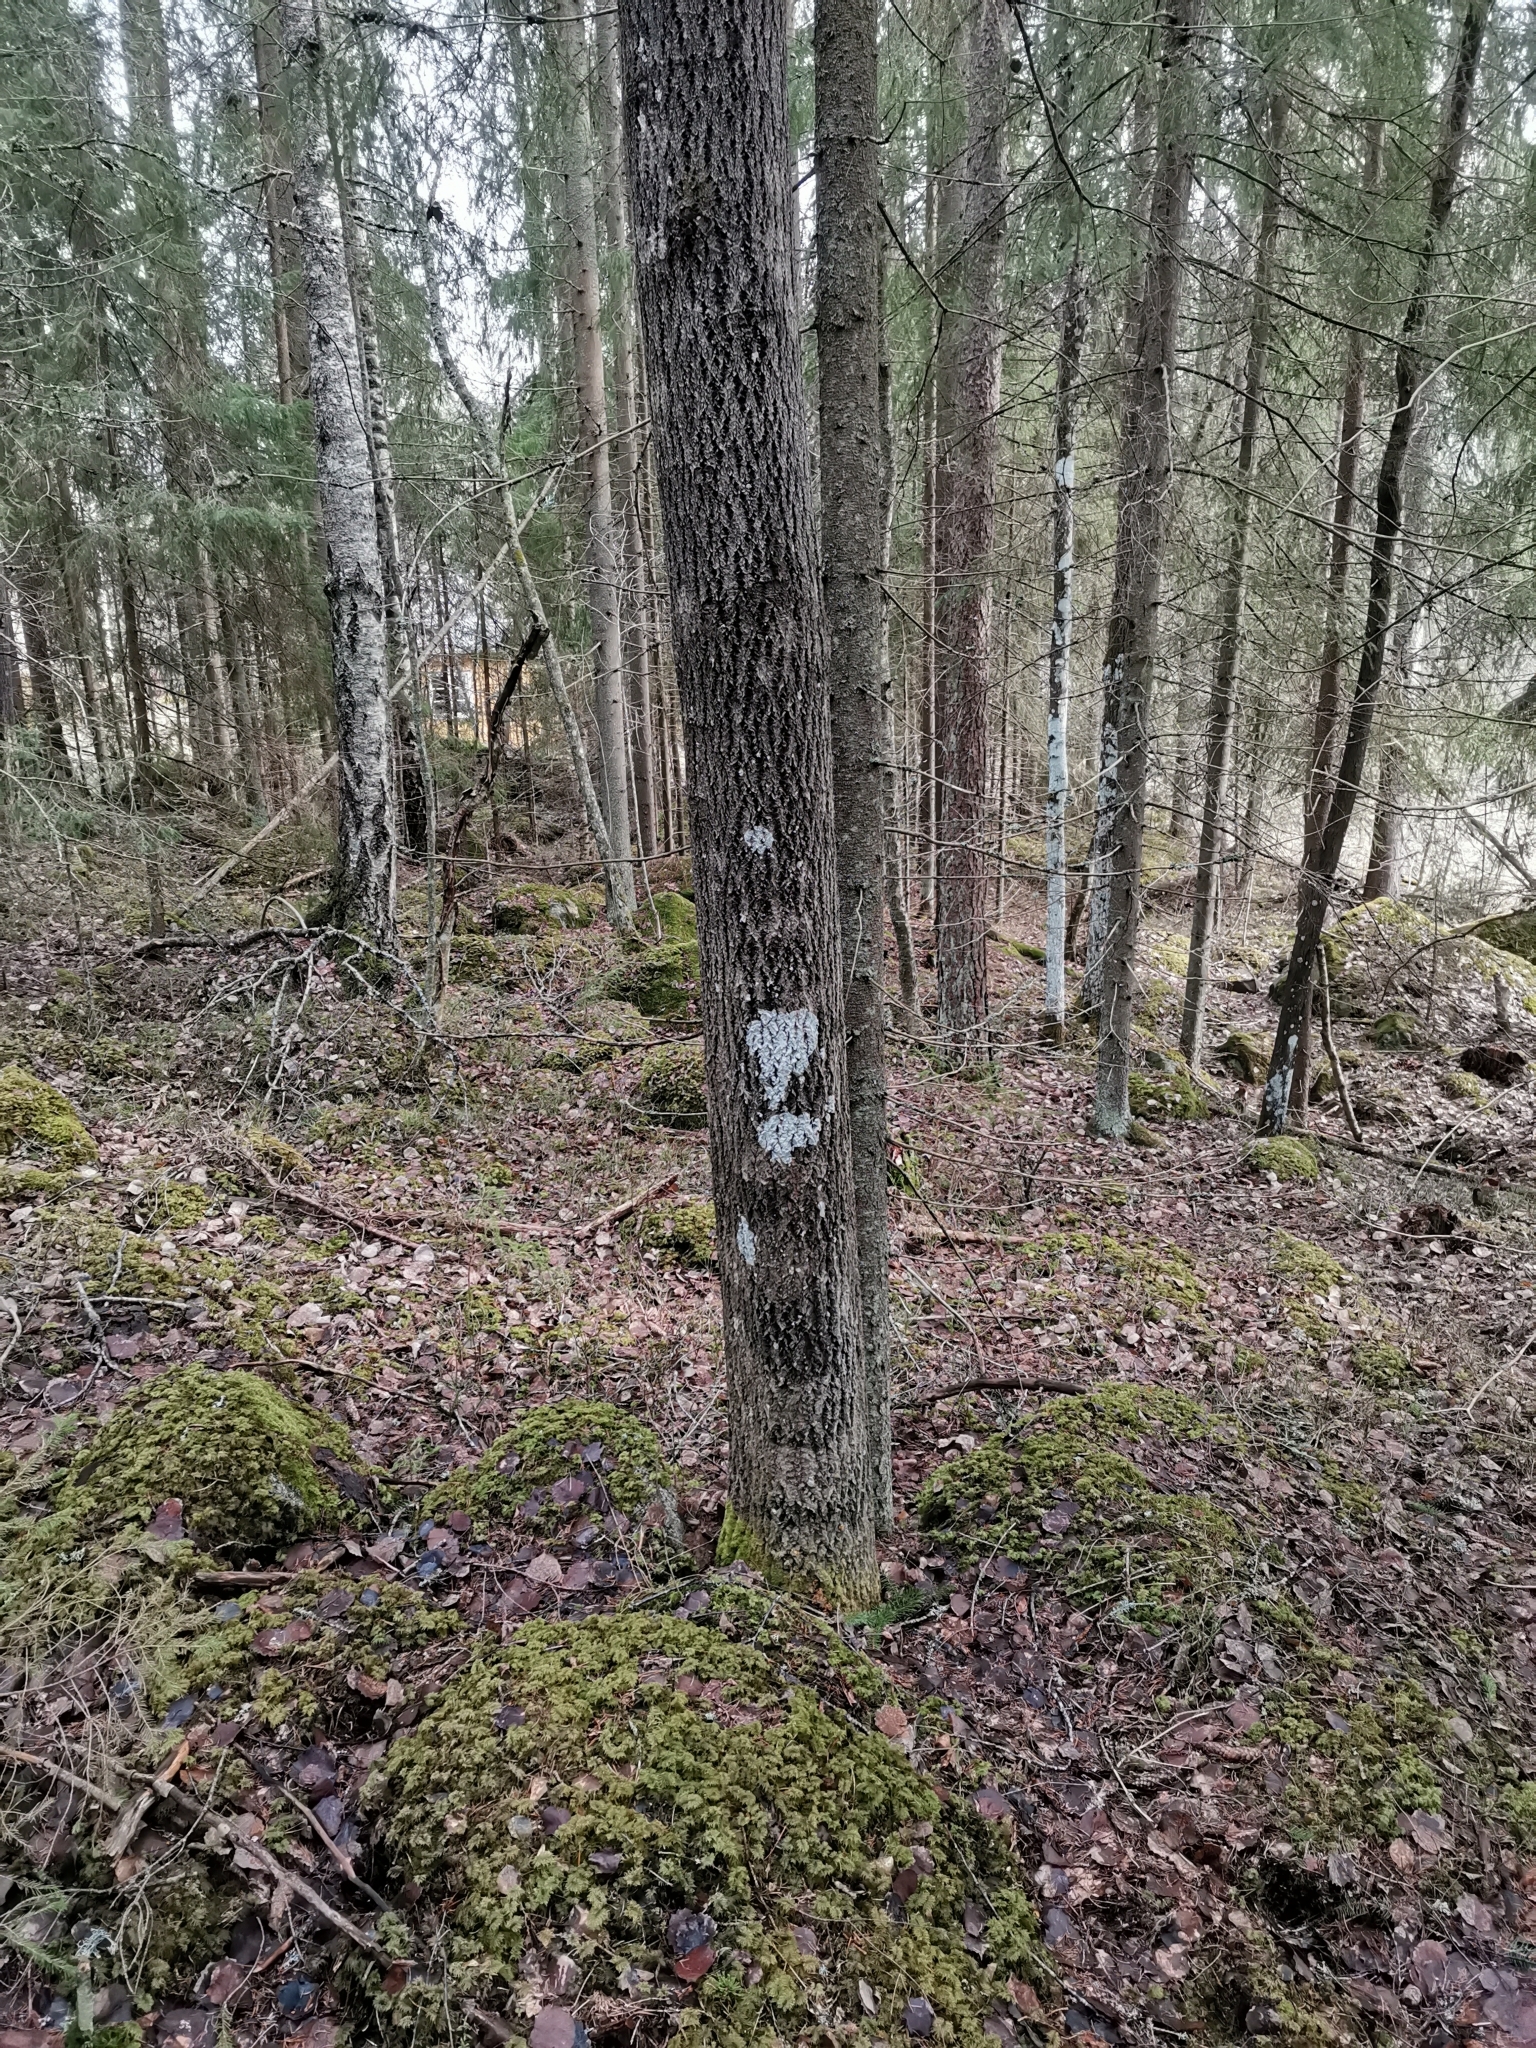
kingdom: Animalia
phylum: Chordata
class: Mammalia
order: Rodentia
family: Sciuridae
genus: Pteromys
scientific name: Pteromys volans
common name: Siberian flying squirrel
